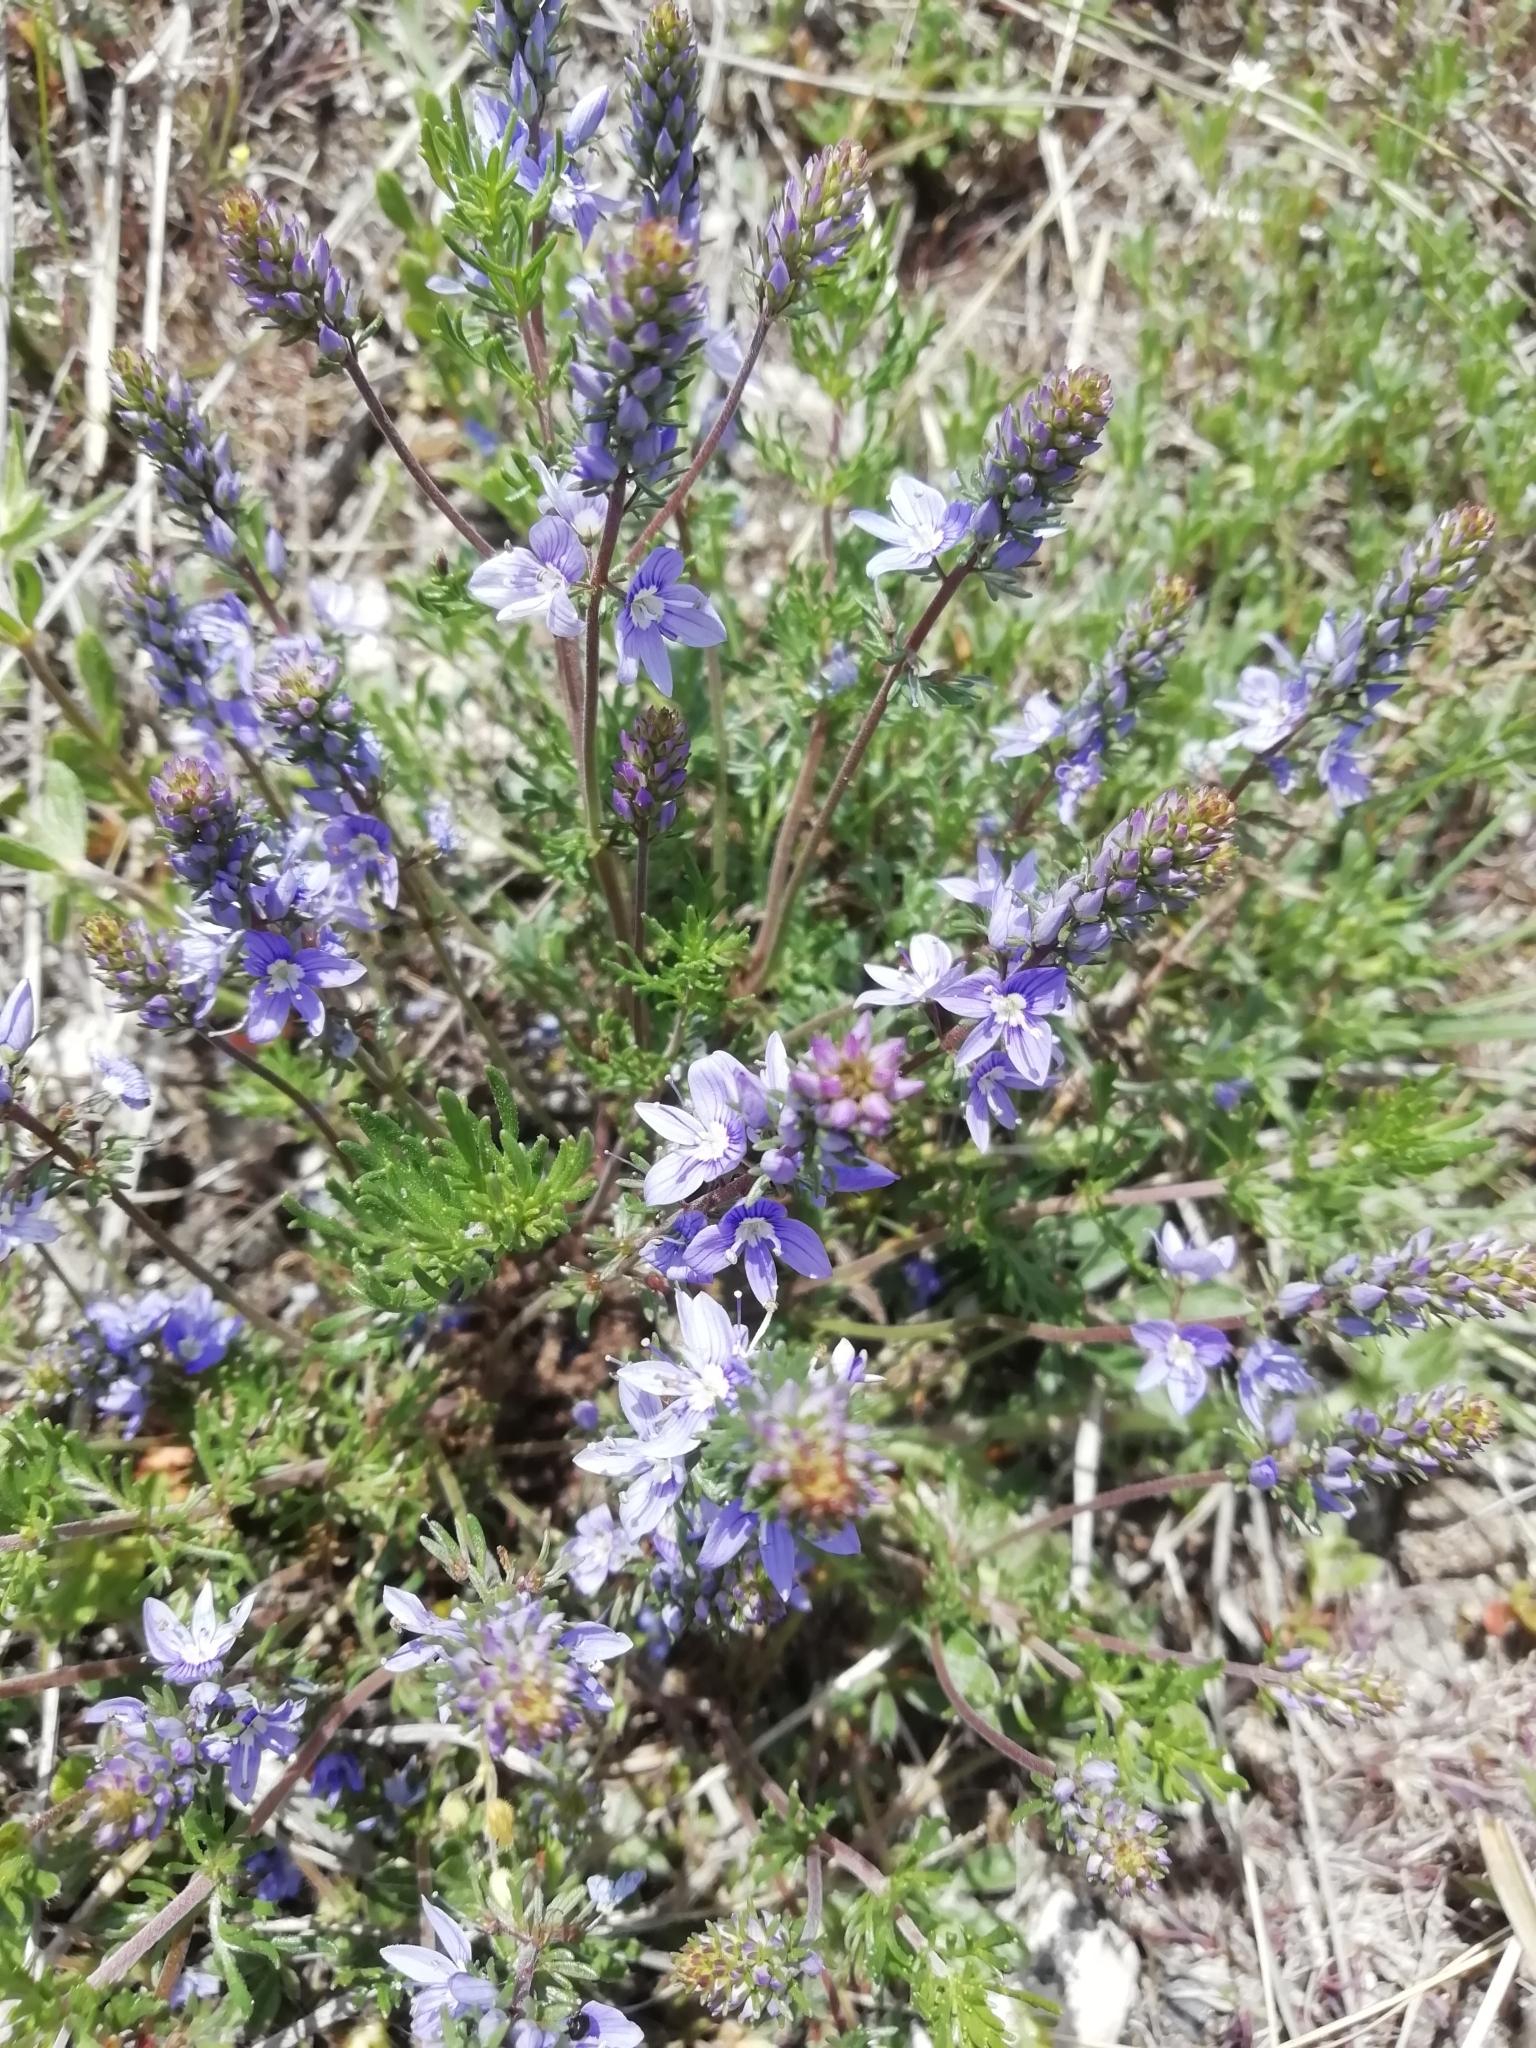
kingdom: Plantae
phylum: Tracheophyta
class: Magnoliopsida
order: Lamiales
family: Plantaginaceae
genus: Veronica
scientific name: Veronica capsellicarpa
